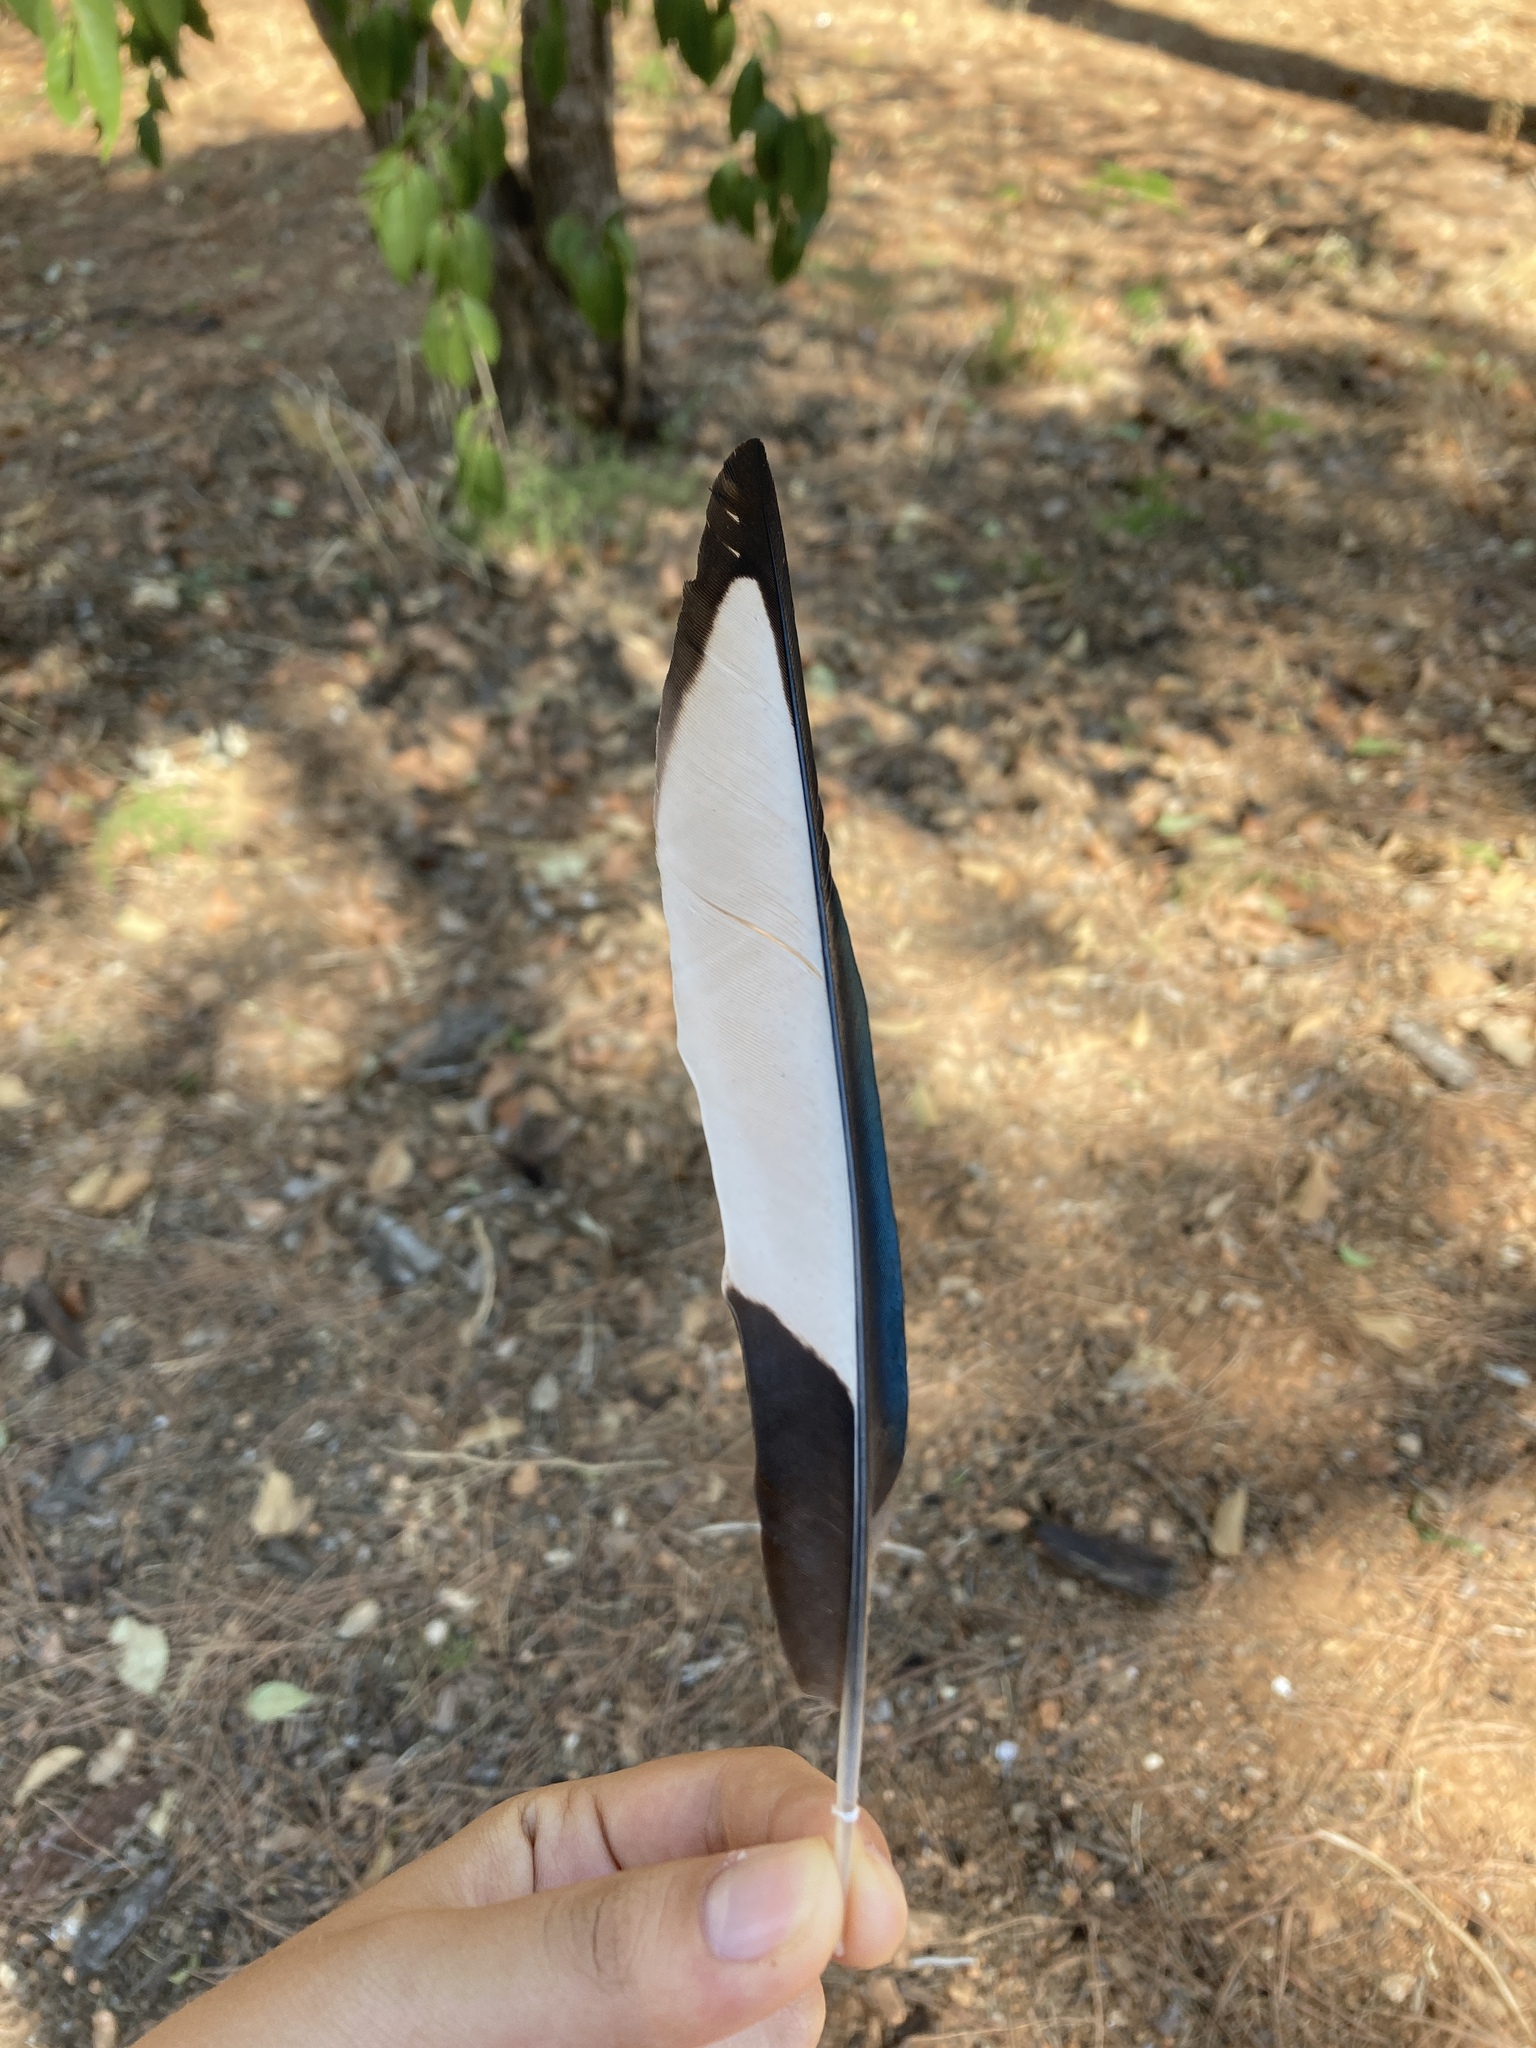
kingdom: Animalia
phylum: Chordata
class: Aves
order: Passeriformes
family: Corvidae
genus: Pica
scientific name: Pica pica
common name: Eurasian magpie
